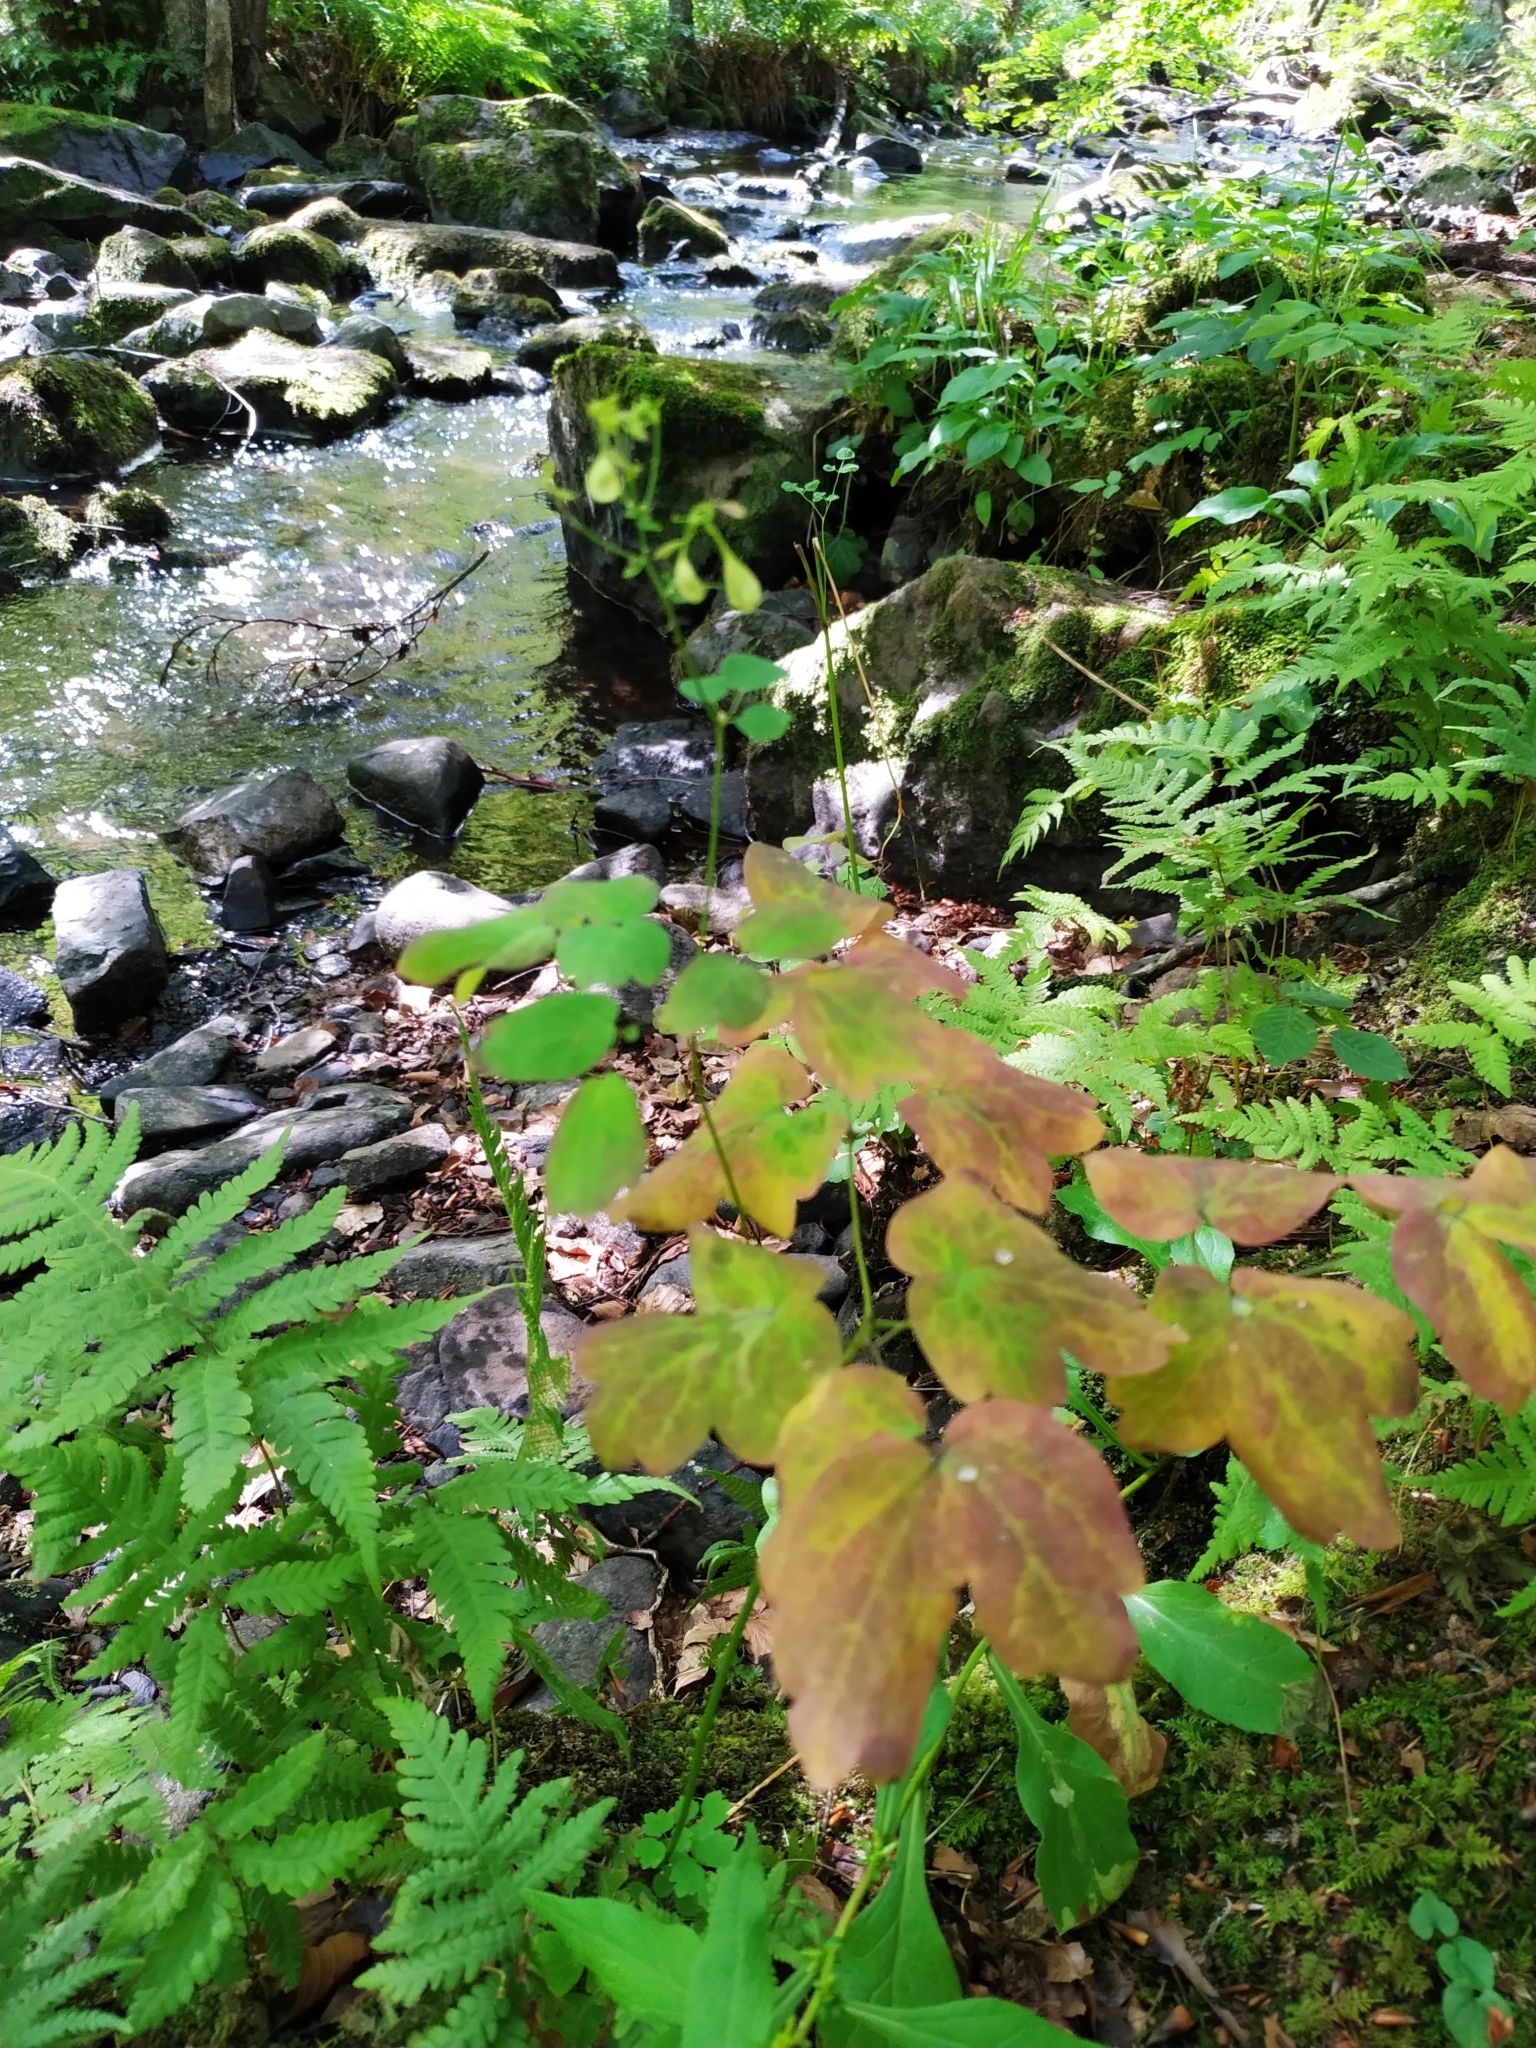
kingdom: Plantae
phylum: Tracheophyta
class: Magnoliopsida
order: Ranunculales
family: Ranunculaceae
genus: Thalictrum
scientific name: Thalictrum aquilegiifolium
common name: French meadow-rue
